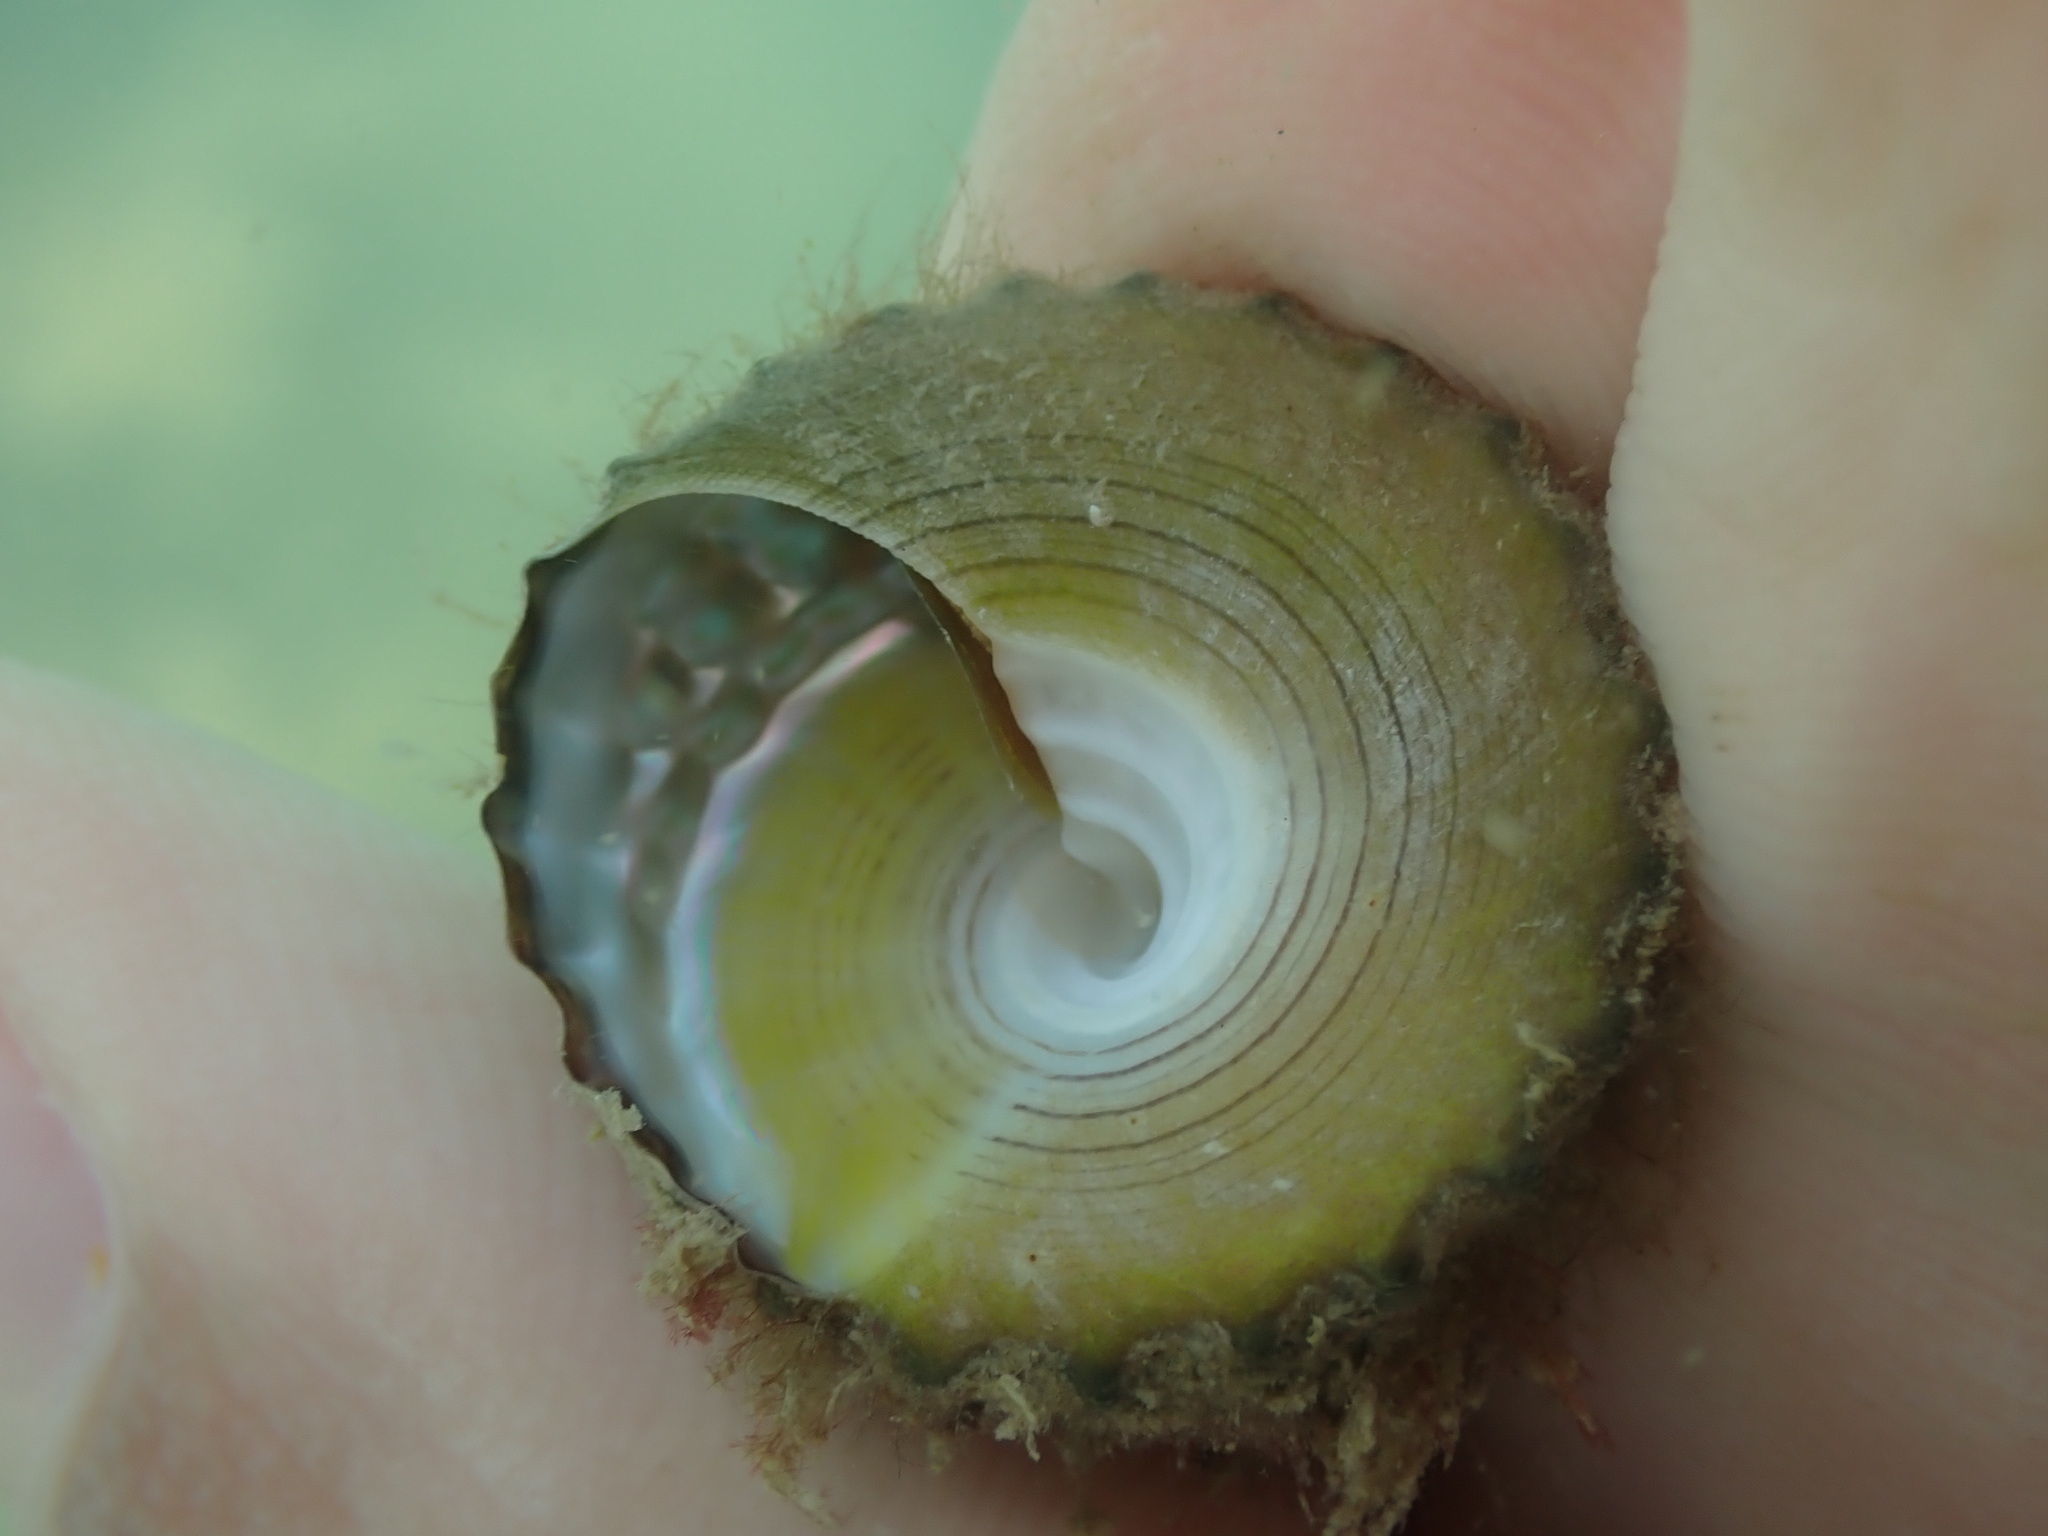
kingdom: Animalia
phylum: Mollusca
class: Gastropoda
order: Trochida
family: Trochidae
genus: Coelotrochus
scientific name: Coelotrochus viridis
